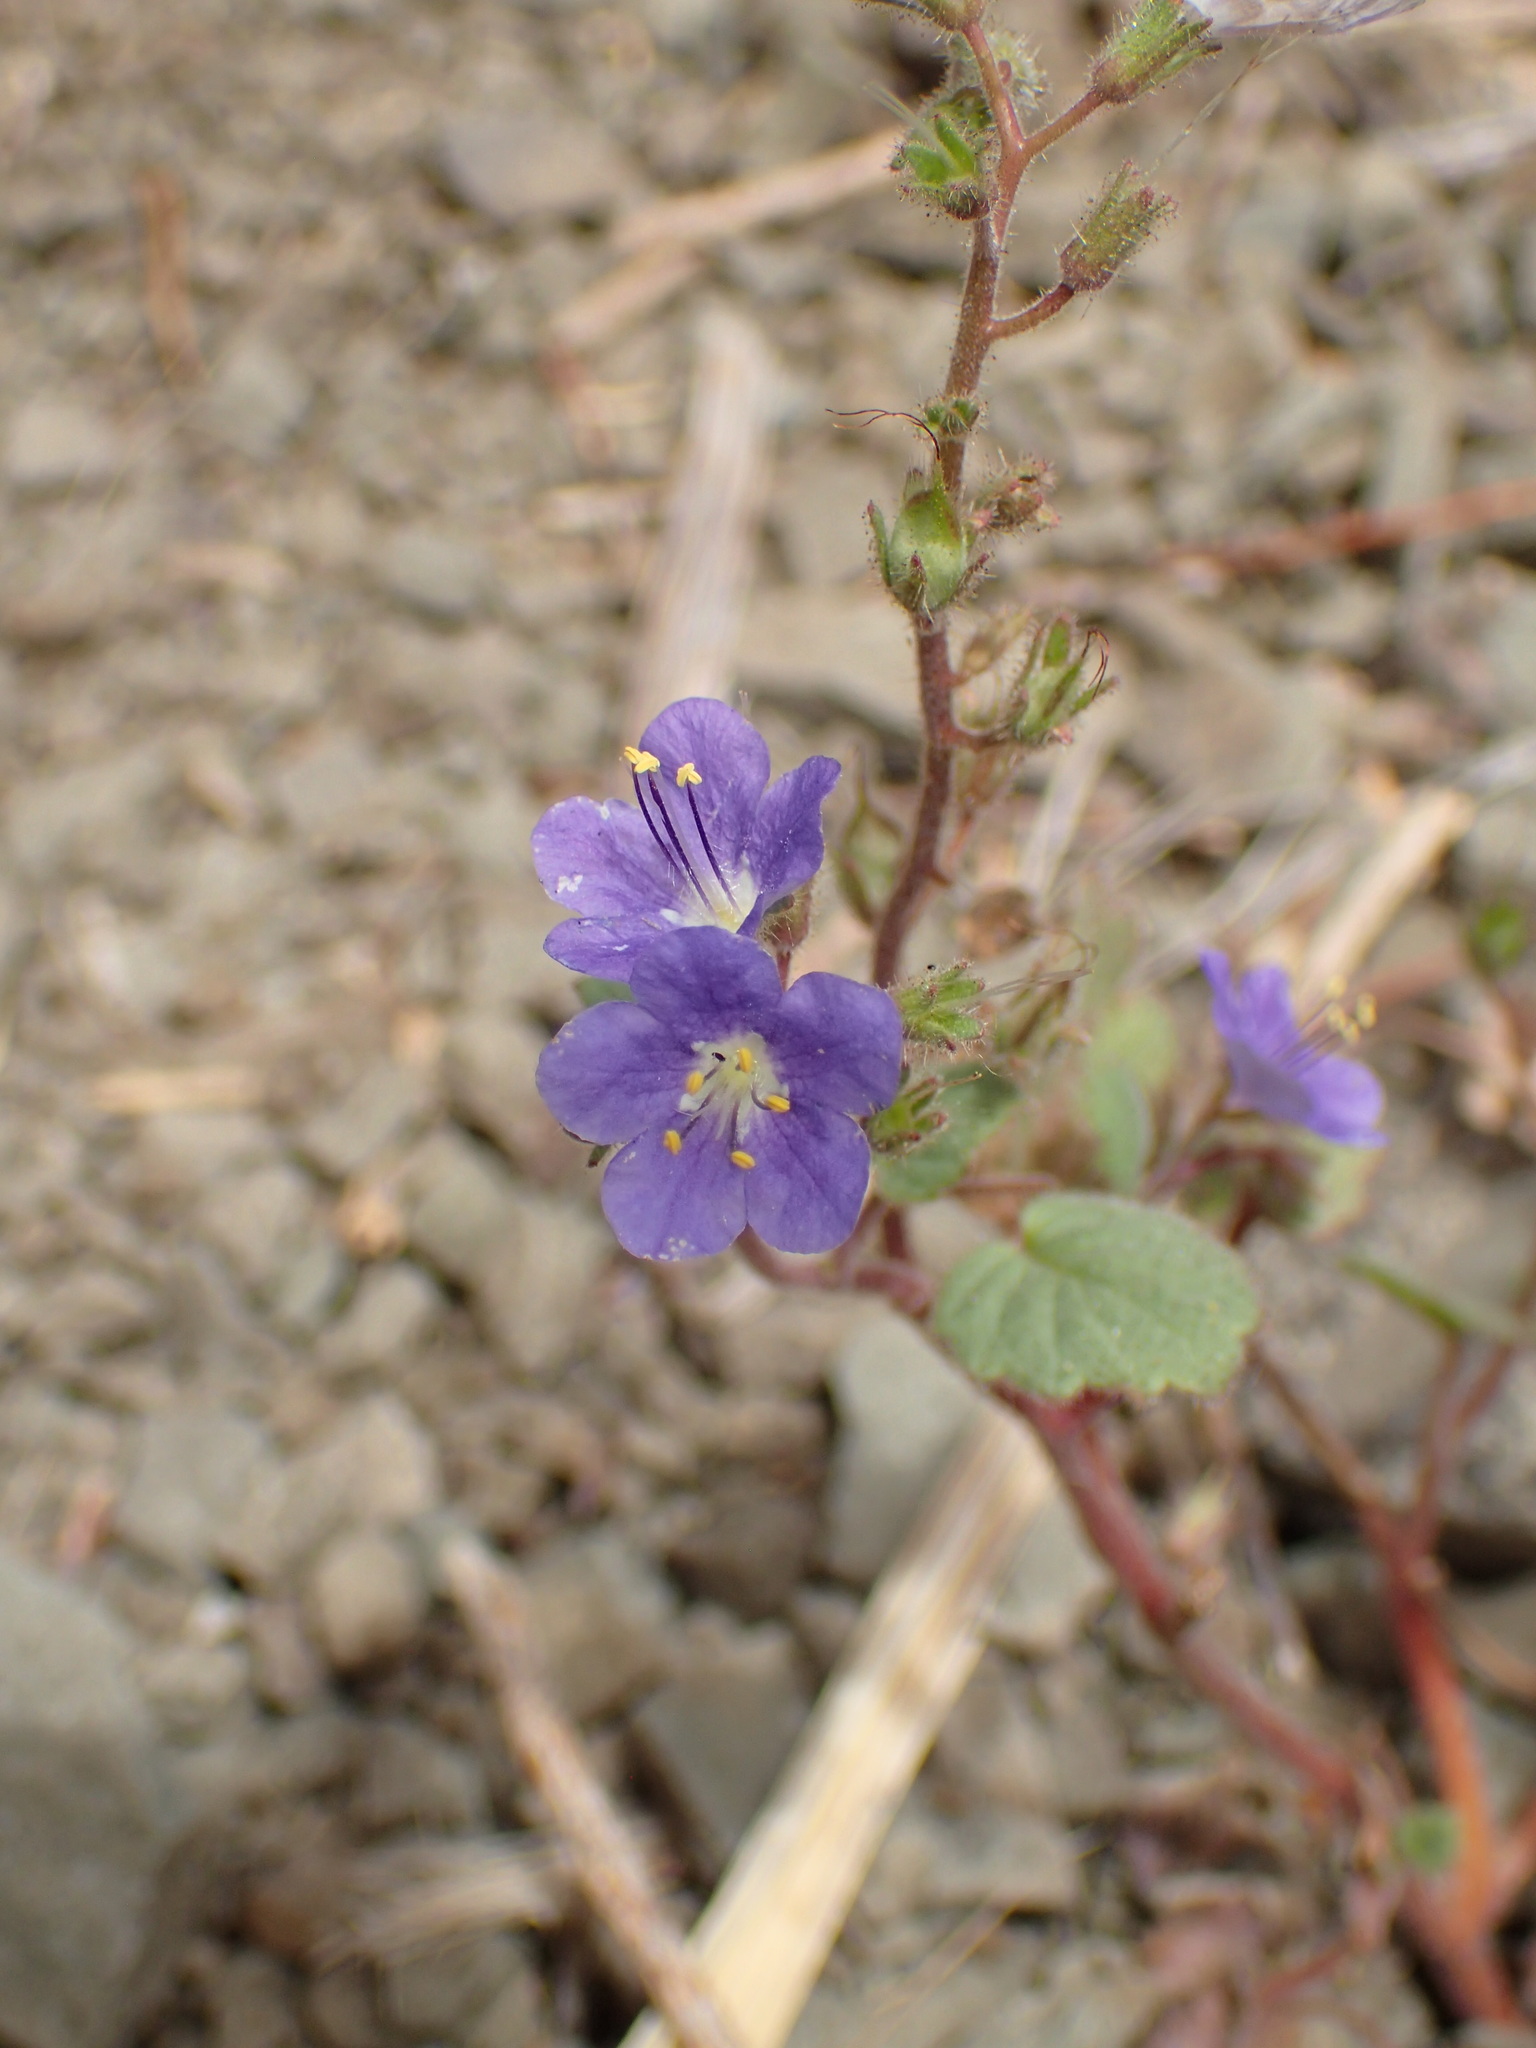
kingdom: Plantae
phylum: Tracheophyta
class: Magnoliopsida
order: Boraginales
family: Hydrophyllaceae
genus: Phacelia
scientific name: Phacelia longipes
